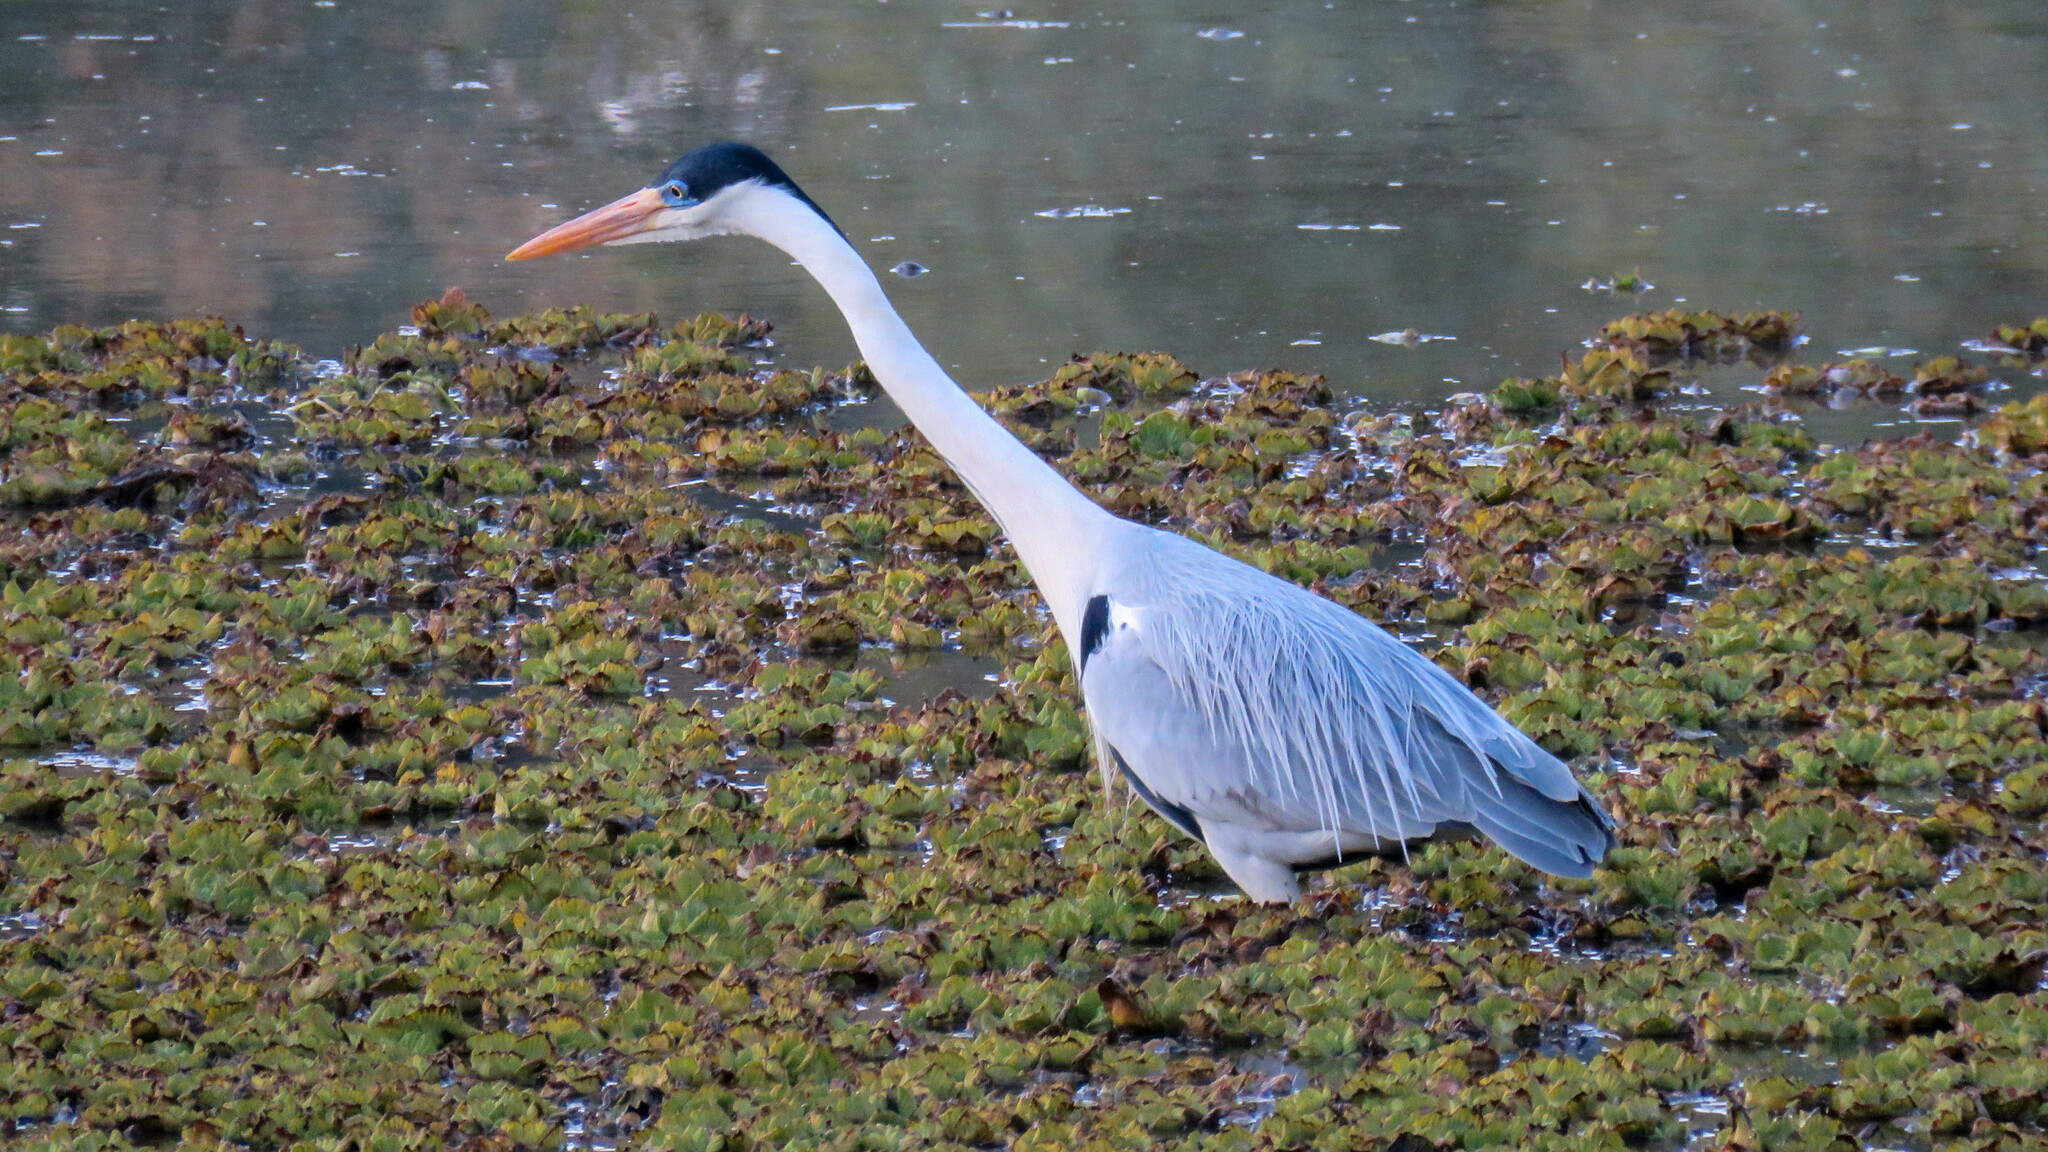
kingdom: Animalia
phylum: Chordata
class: Aves
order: Pelecaniformes
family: Ardeidae
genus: Ardea
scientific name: Ardea cocoi
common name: Cocoi heron
